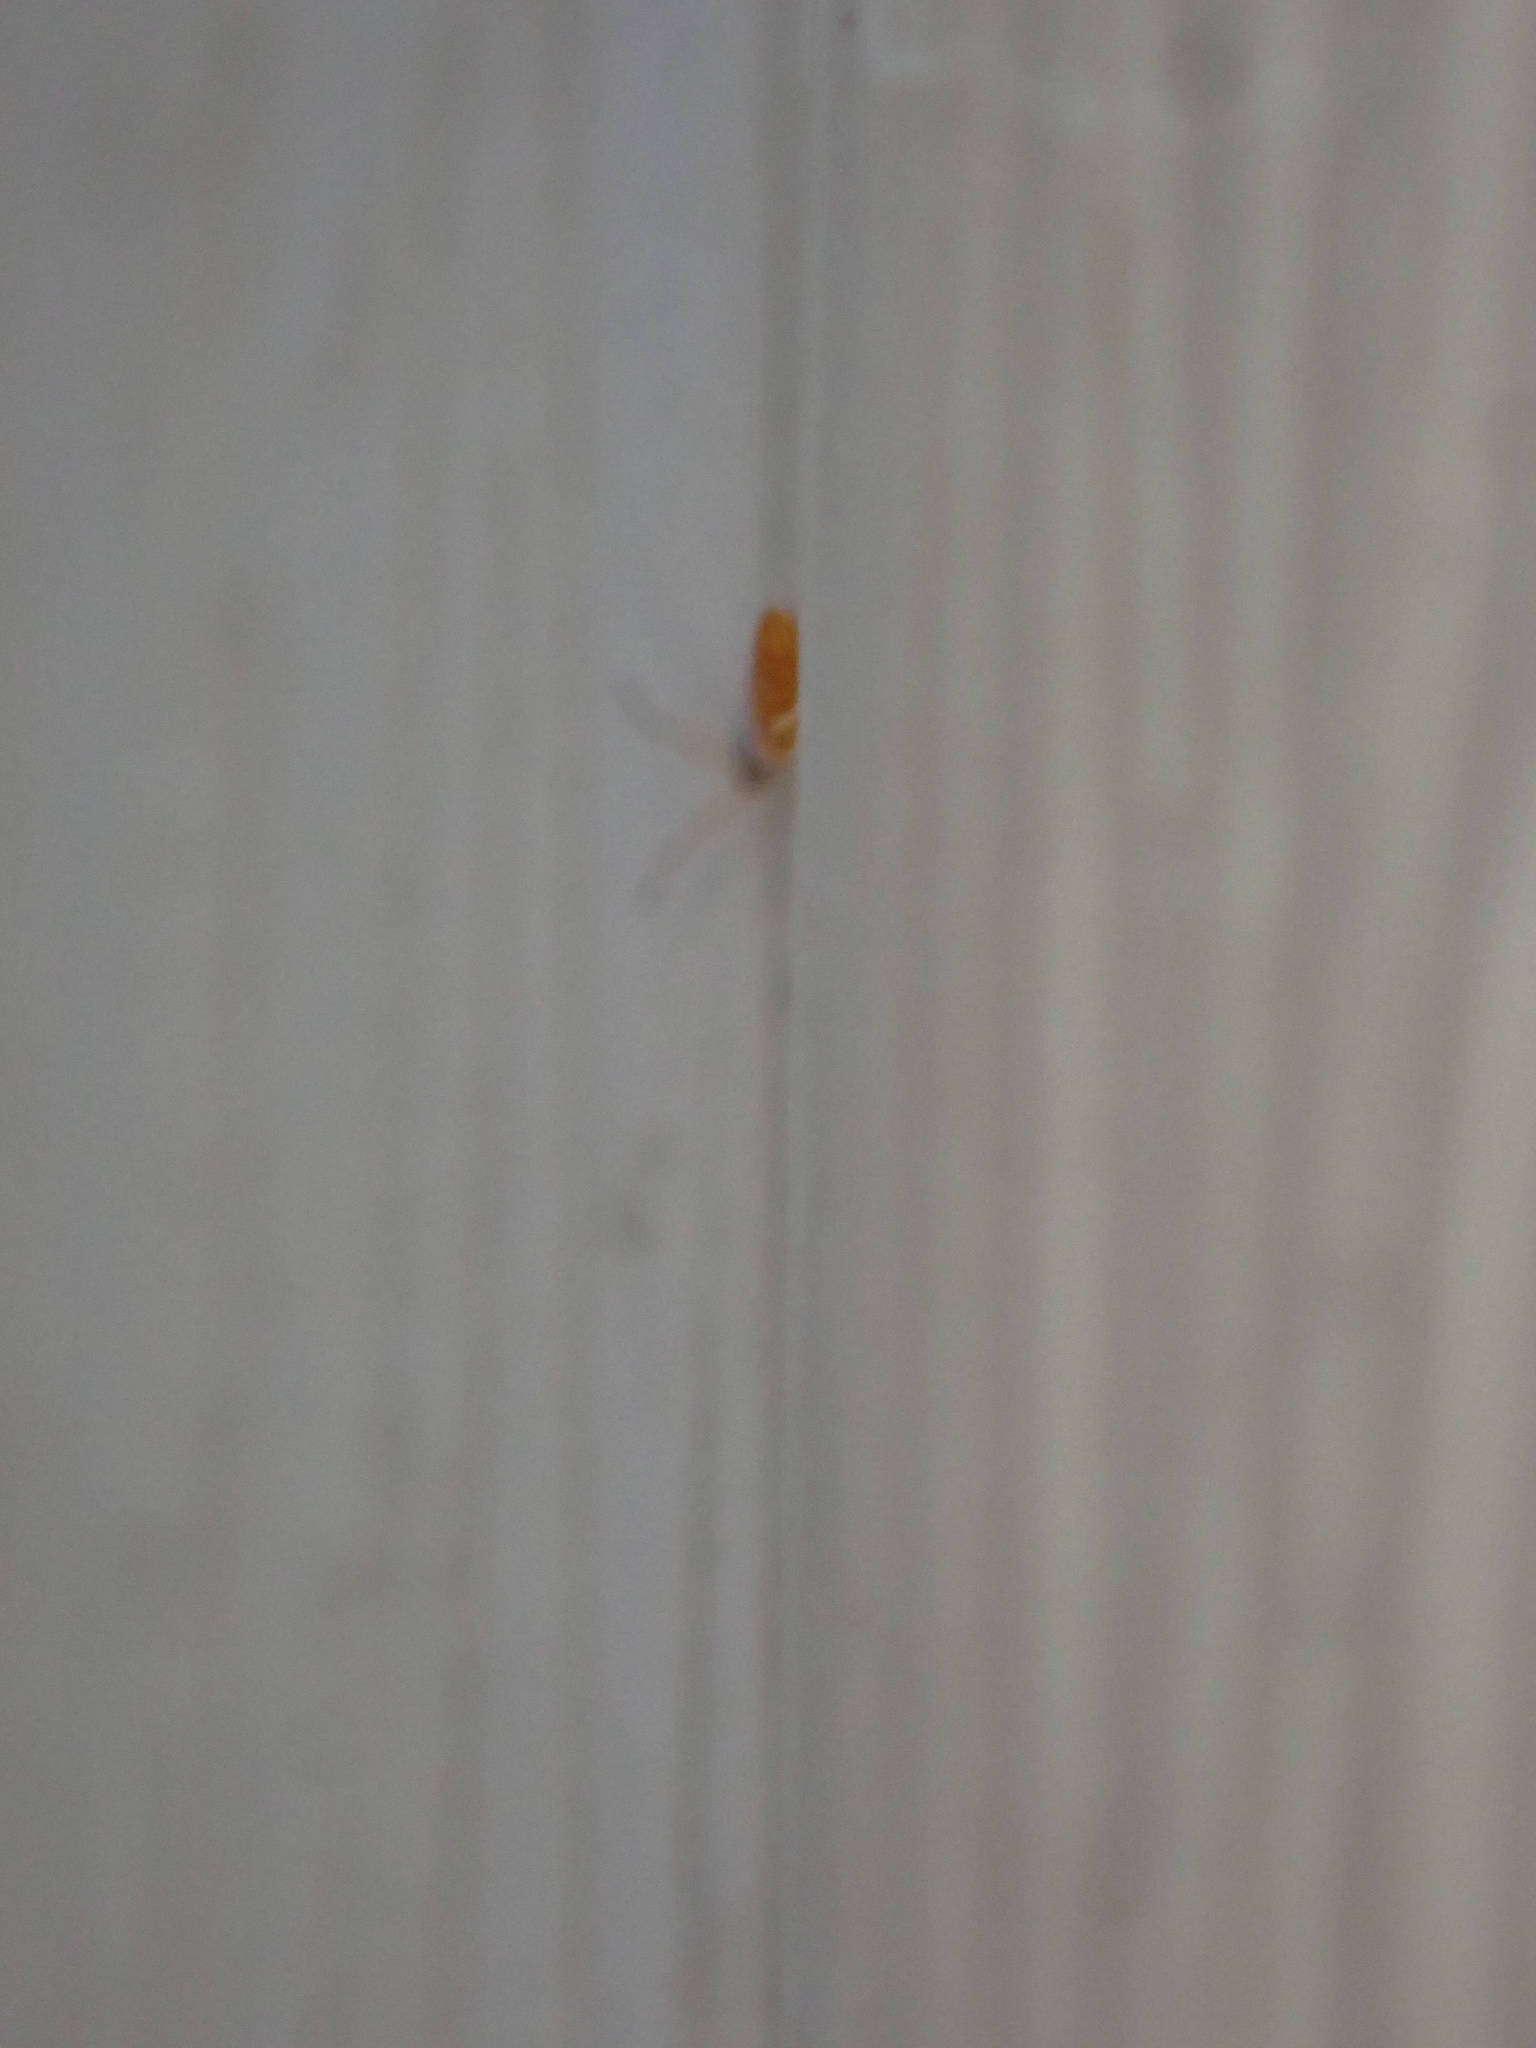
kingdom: Animalia
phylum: Arthropoda
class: Collembola
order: Entomobryomorpha
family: Entomobryidae
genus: Entomobrya
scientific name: Entomobrya atrocincta
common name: Springtail
